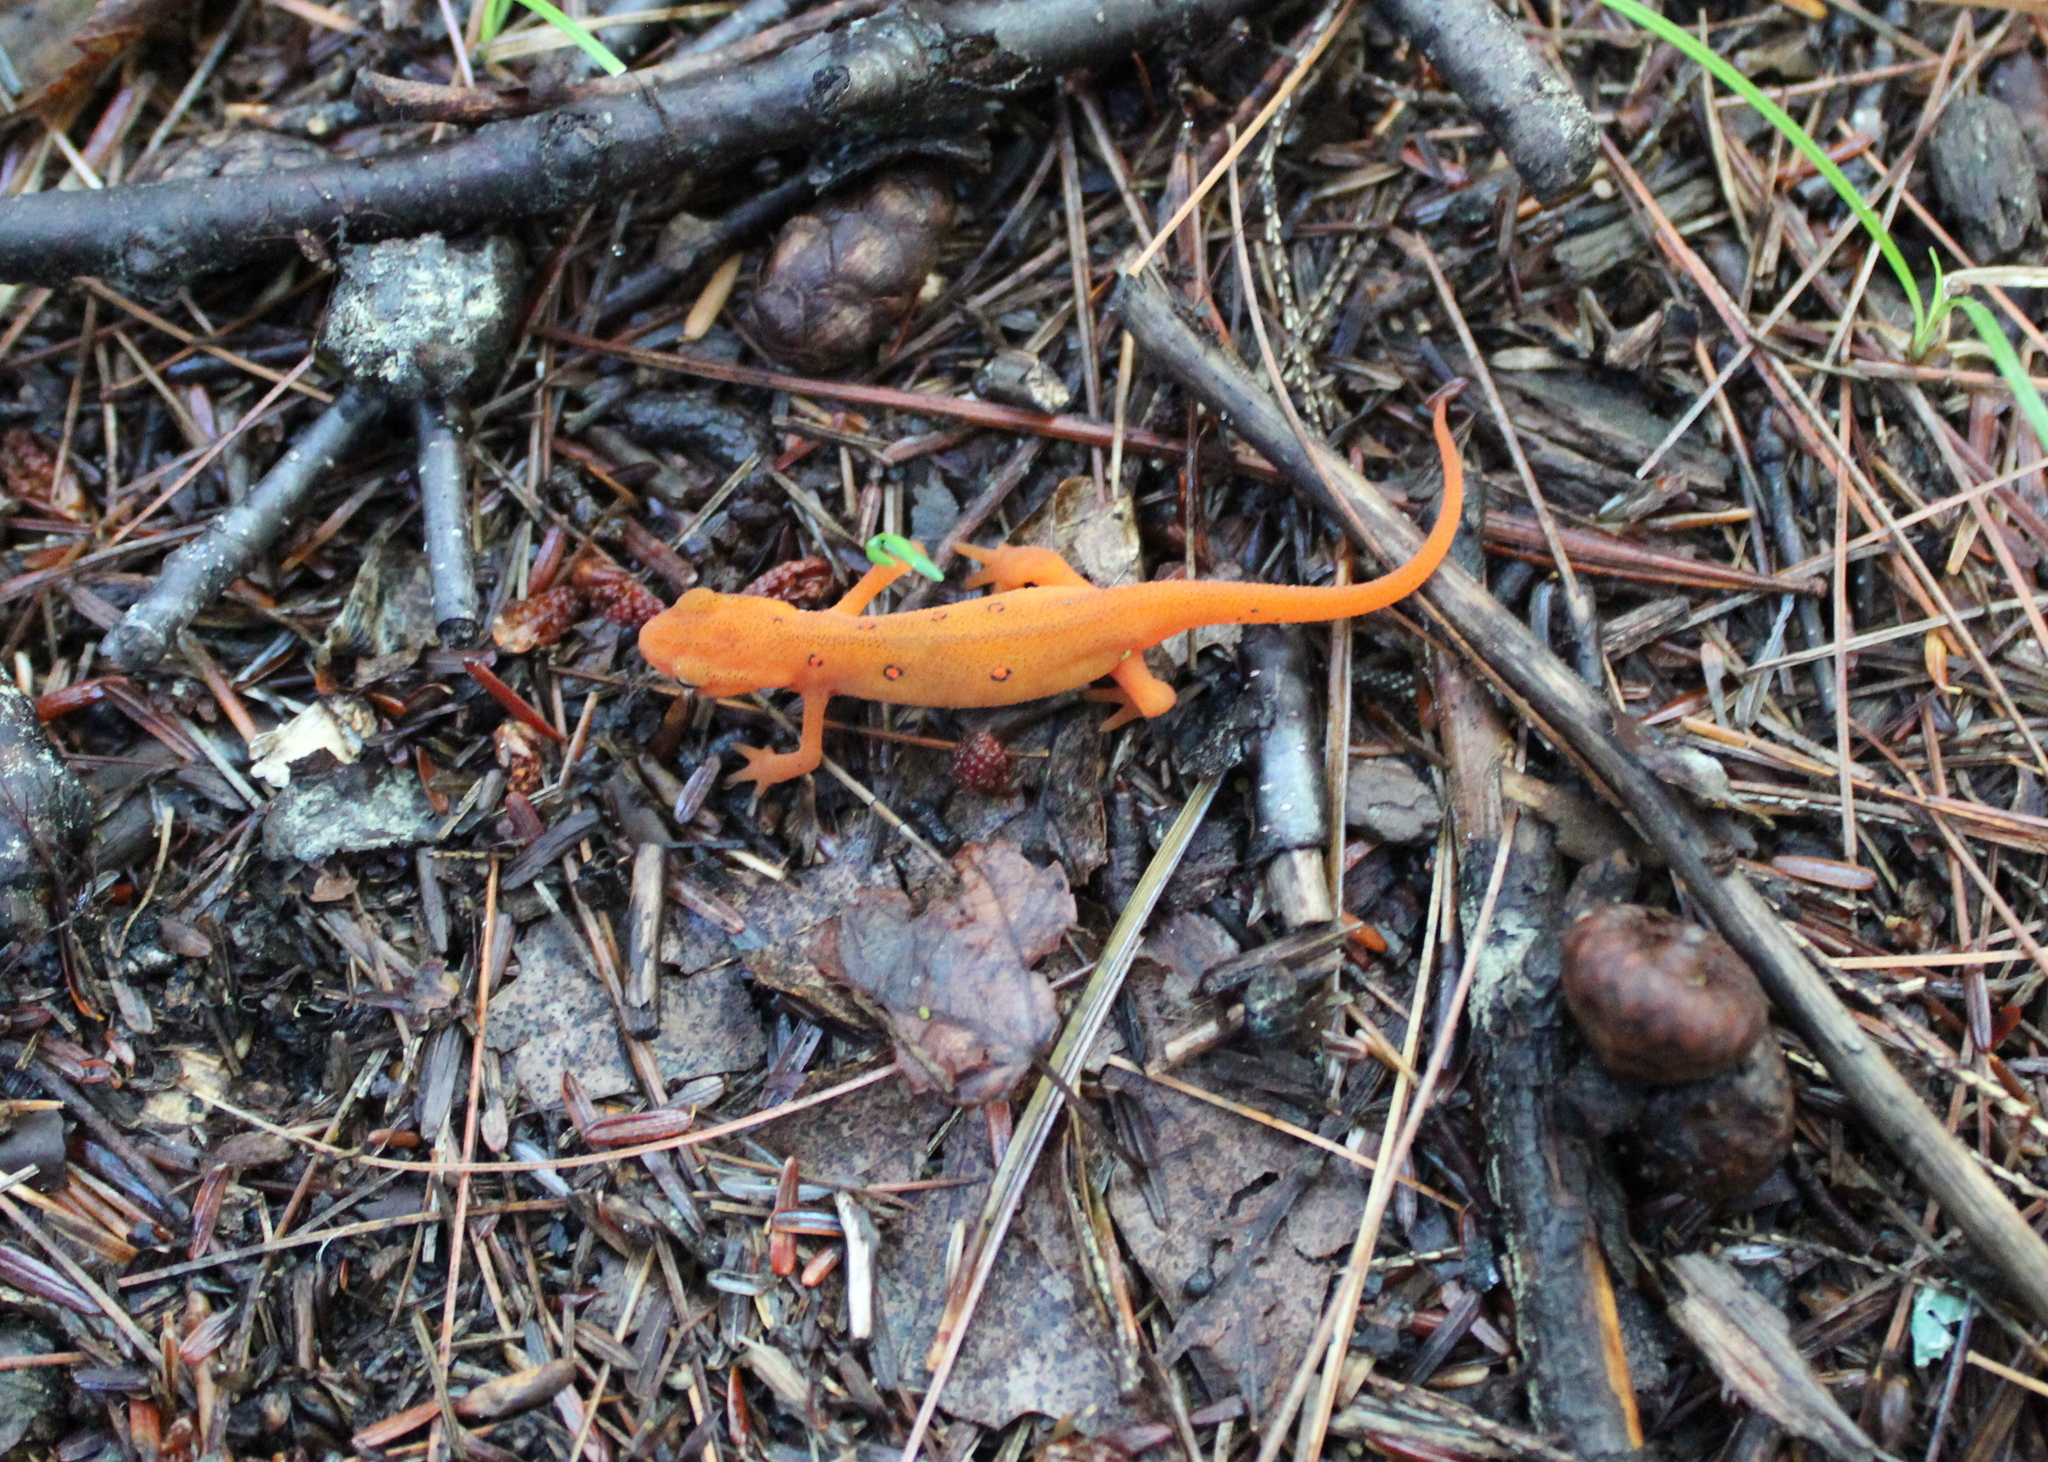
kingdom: Animalia
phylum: Chordata
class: Amphibia
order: Caudata
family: Salamandridae
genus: Notophthalmus
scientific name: Notophthalmus viridescens
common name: Eastern newt
